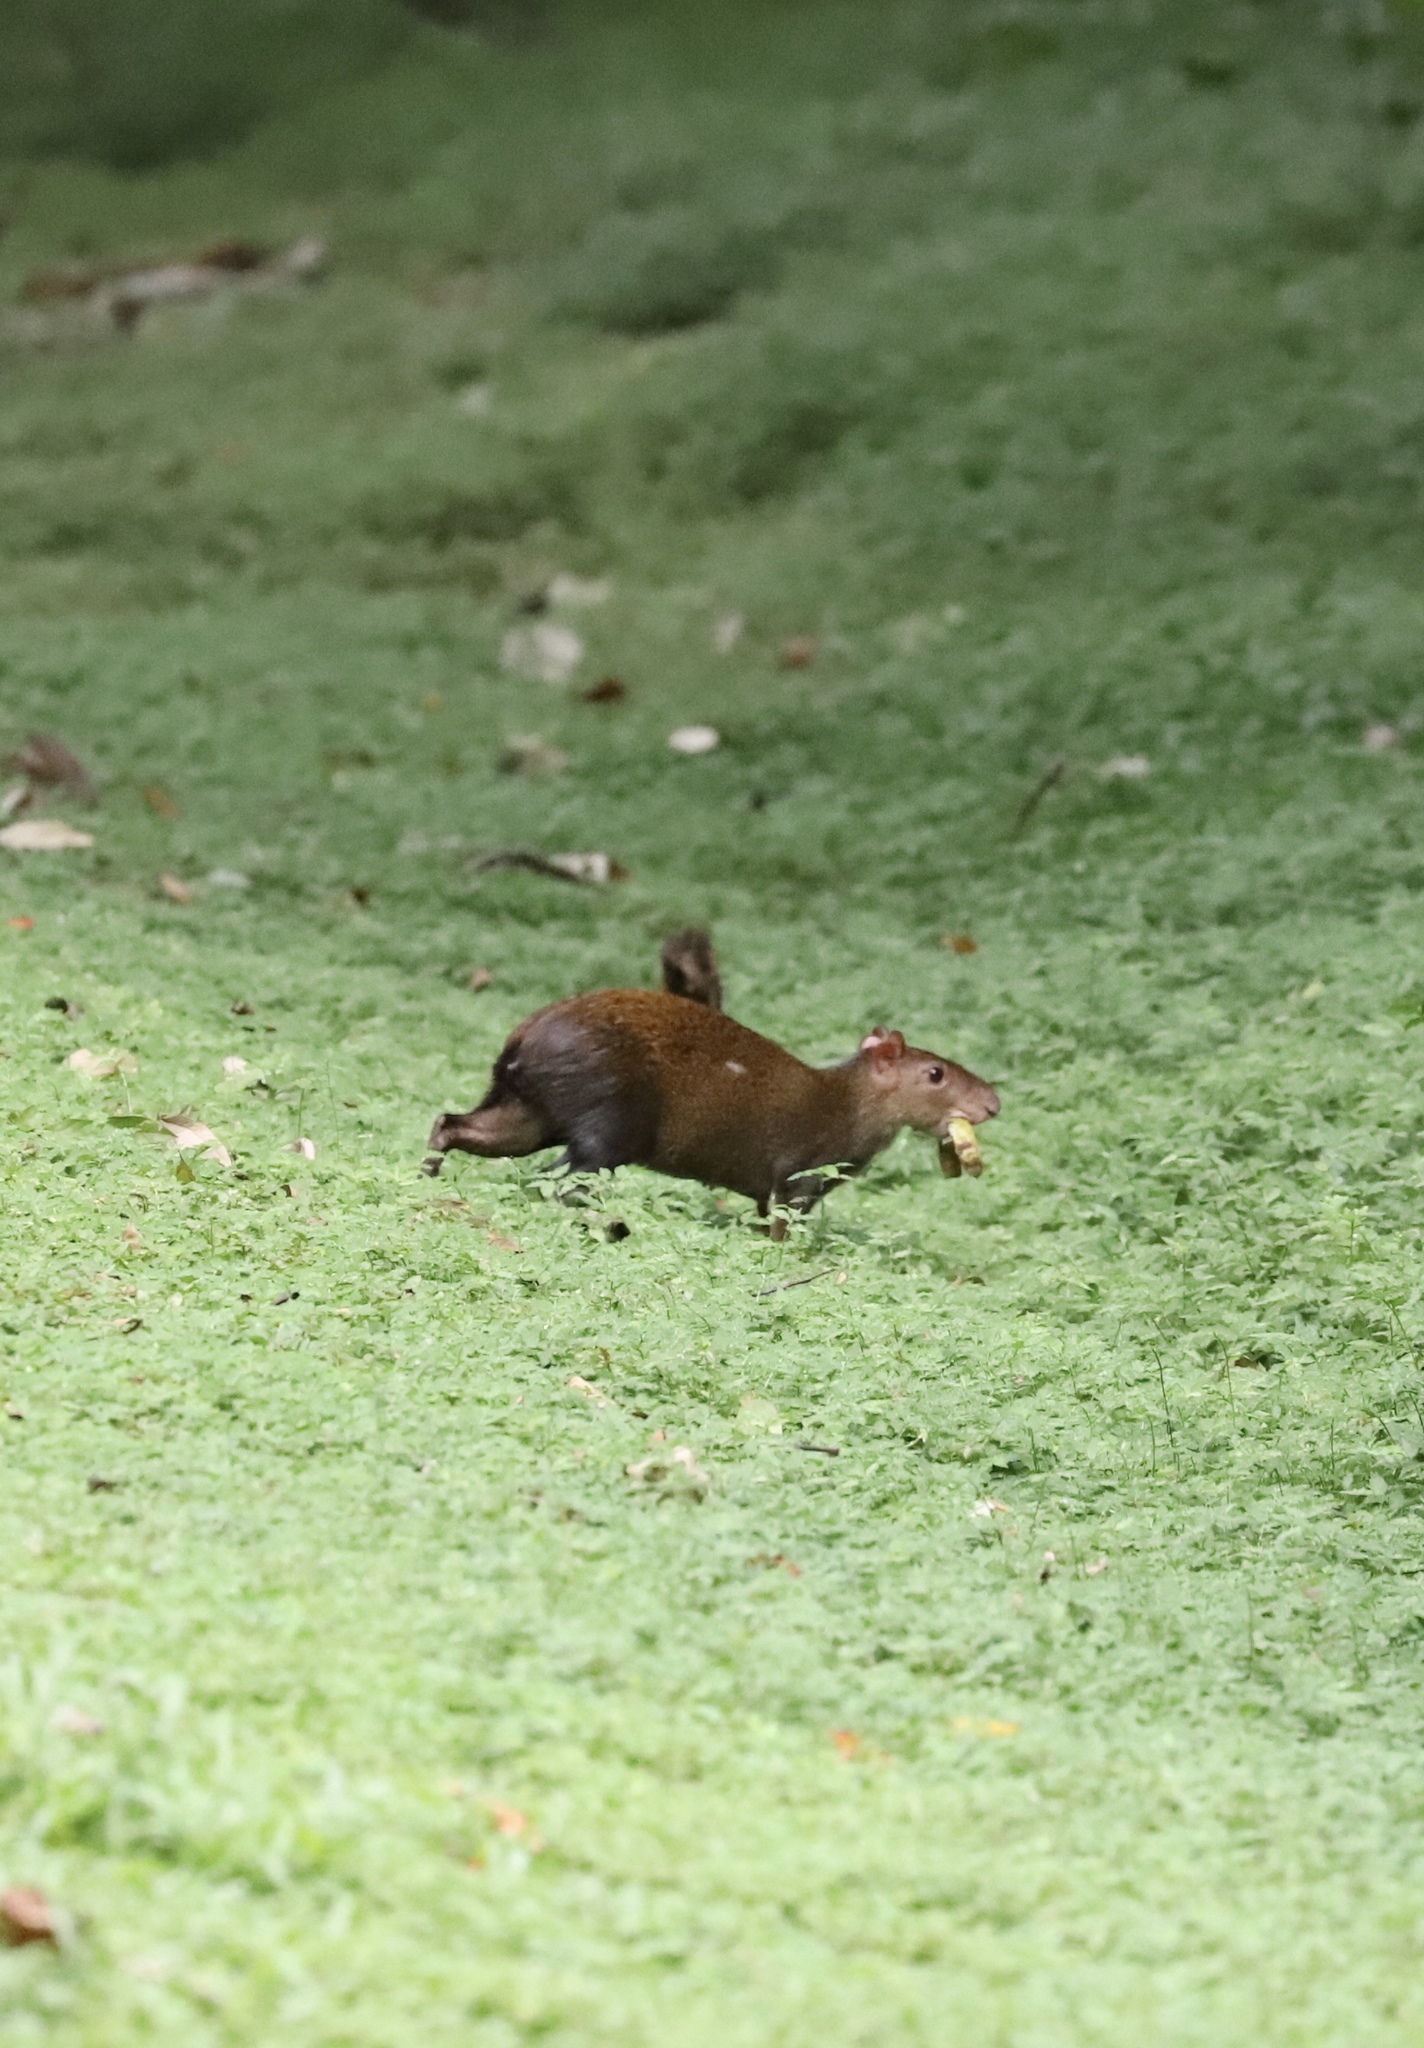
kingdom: Animalia
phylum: Chordata
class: Mammalia
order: Rodentia
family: Dasyproctidae
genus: Dasyprocta
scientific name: Dasyprocta punctata
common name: Central american agouti
